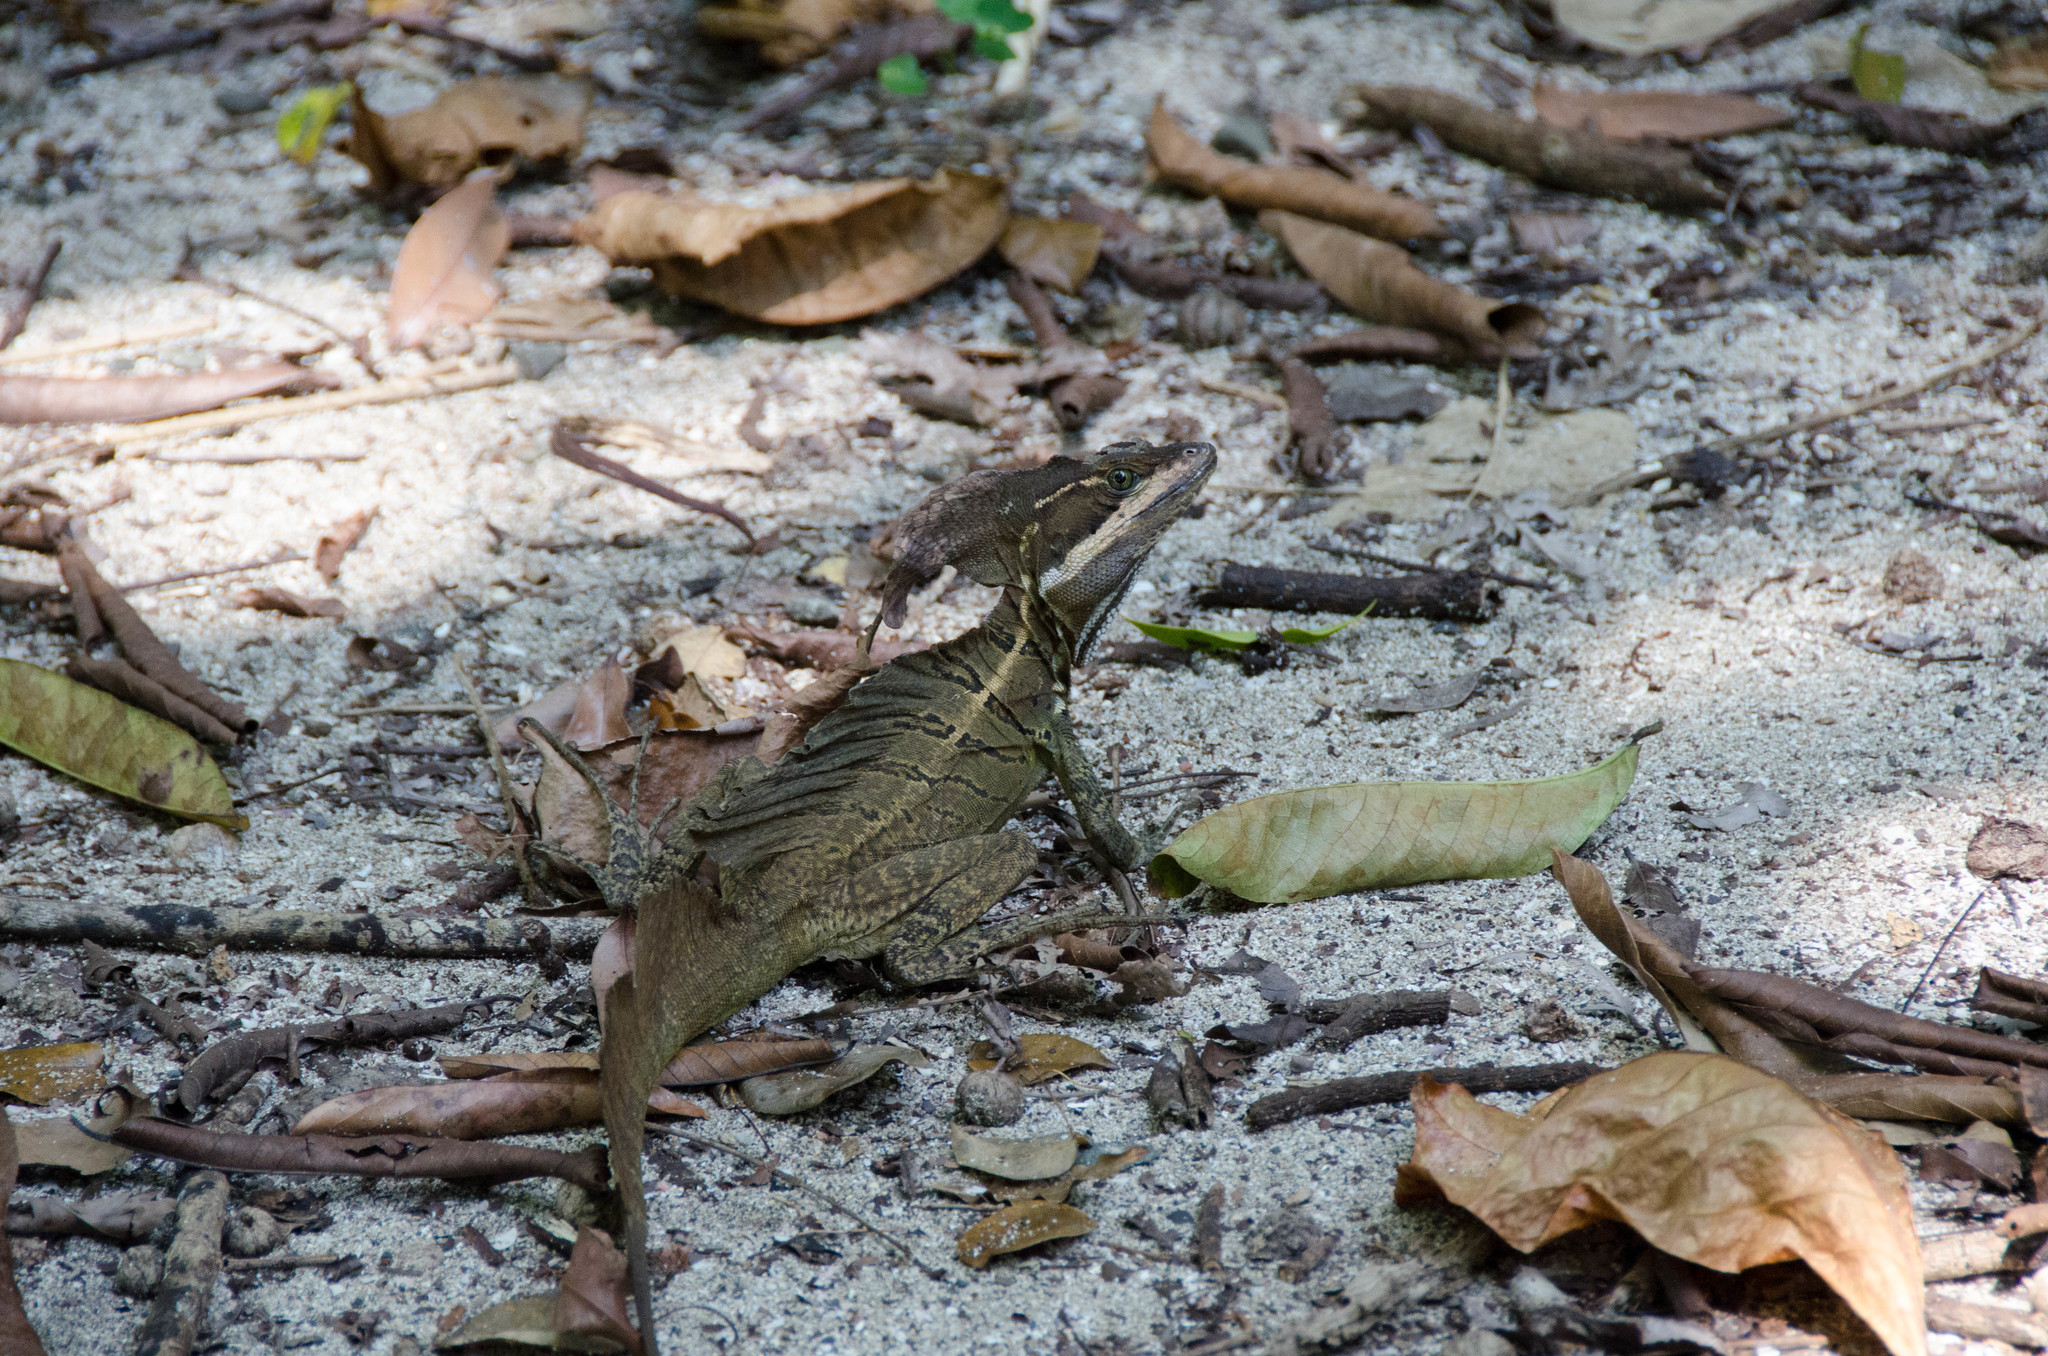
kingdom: Animalia
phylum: Chordata
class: Squamata
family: Corytophanidae
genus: Basiliscus
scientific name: Basiliscus basiliscus
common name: Common basilisk
